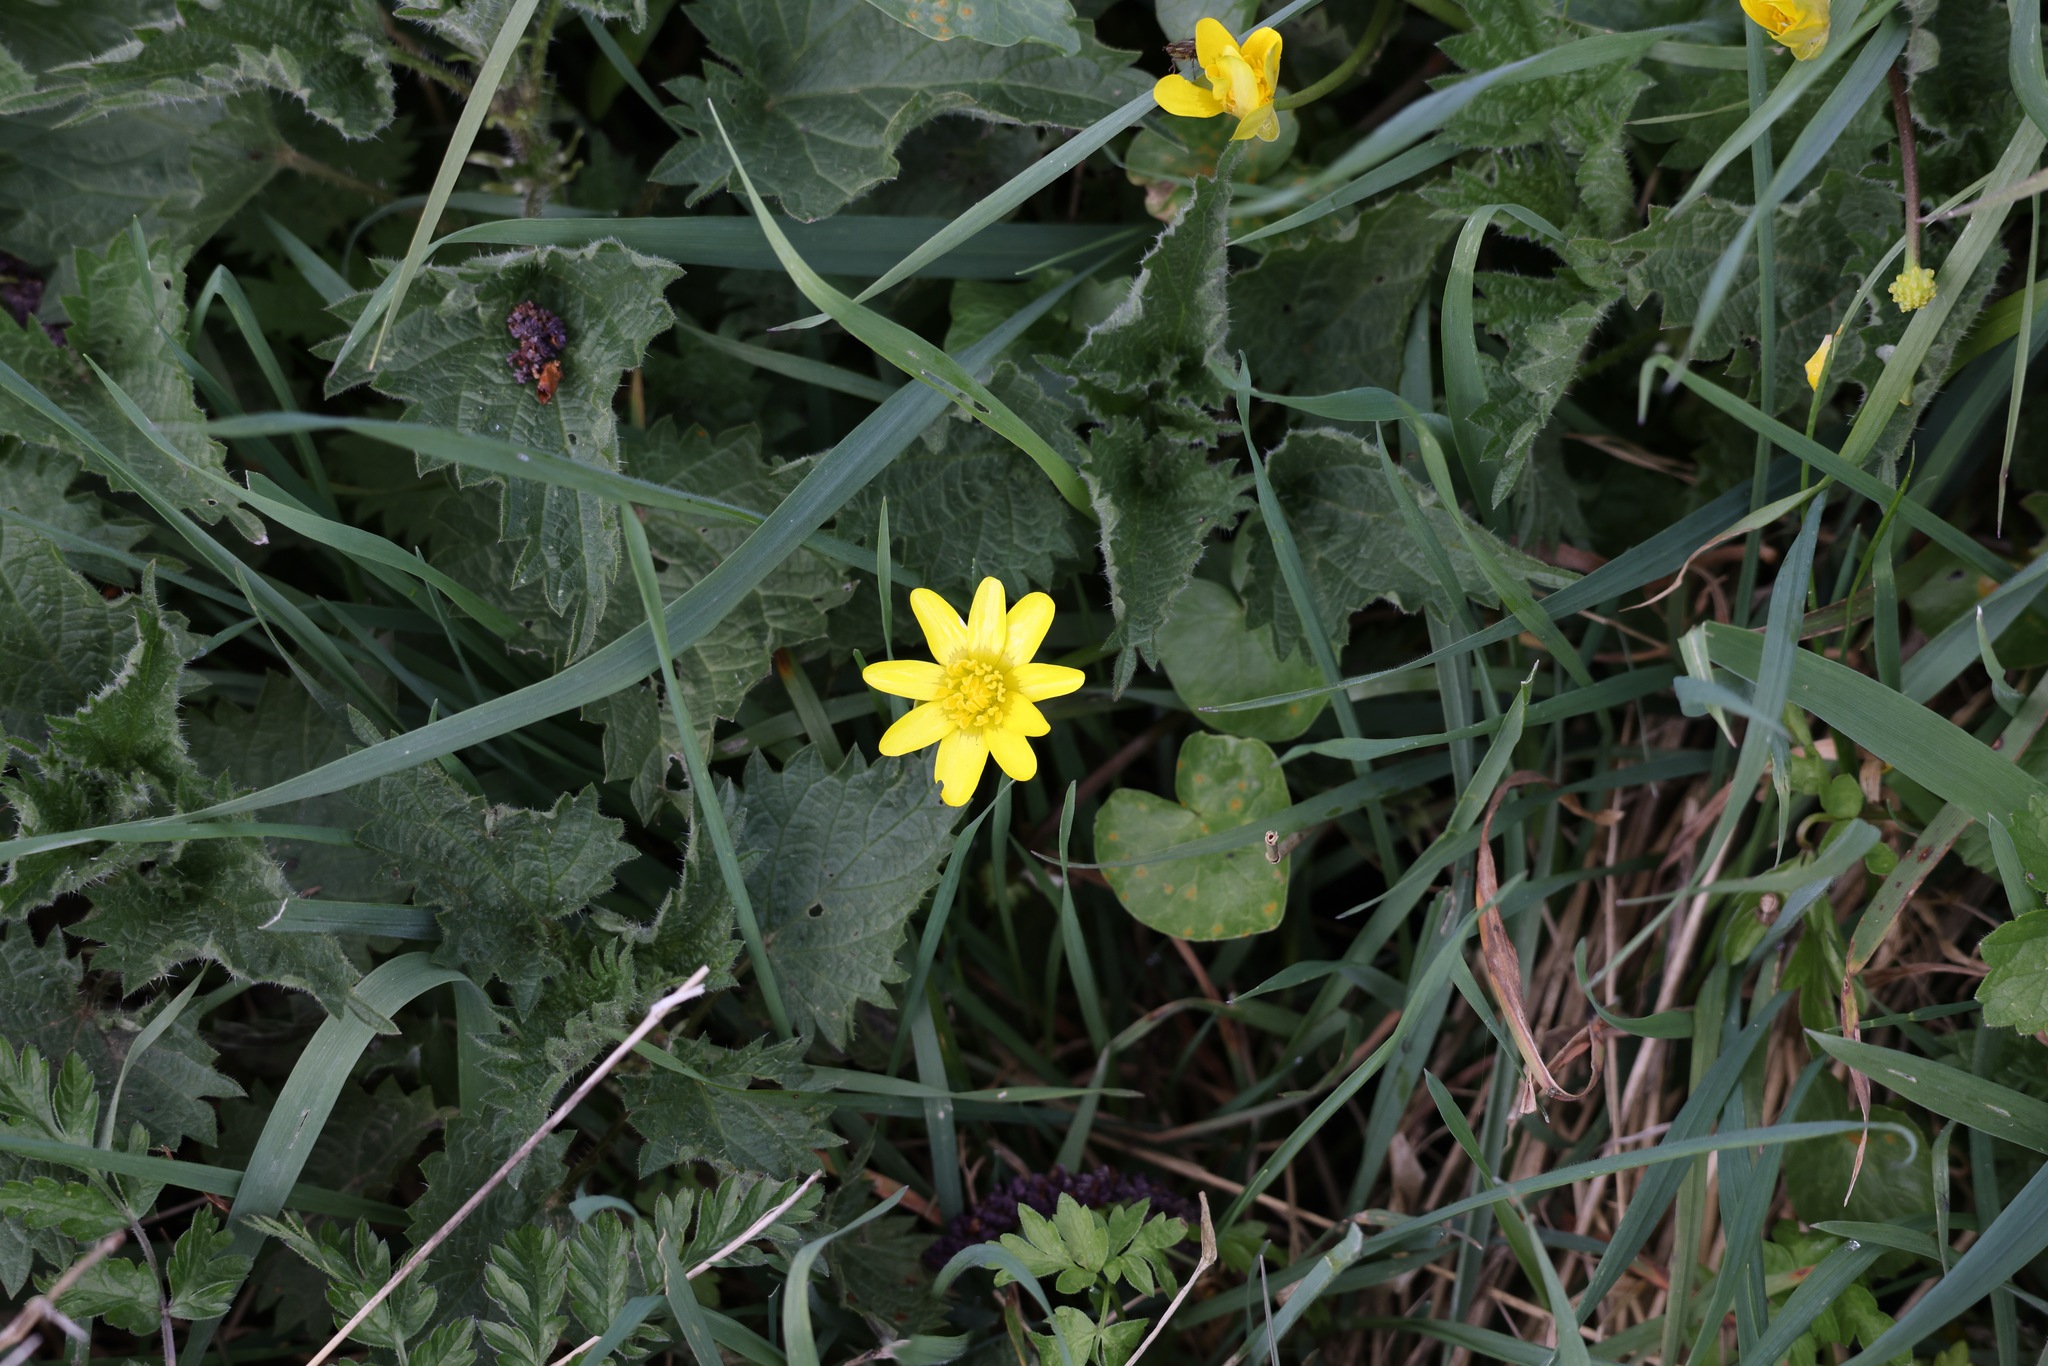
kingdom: Plantae
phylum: Tracheophyta
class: Magnoliopsida
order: Ranunculales
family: Ranunculaceae
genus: Ficaria
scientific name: Ficaria verna
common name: Lesser celandine
